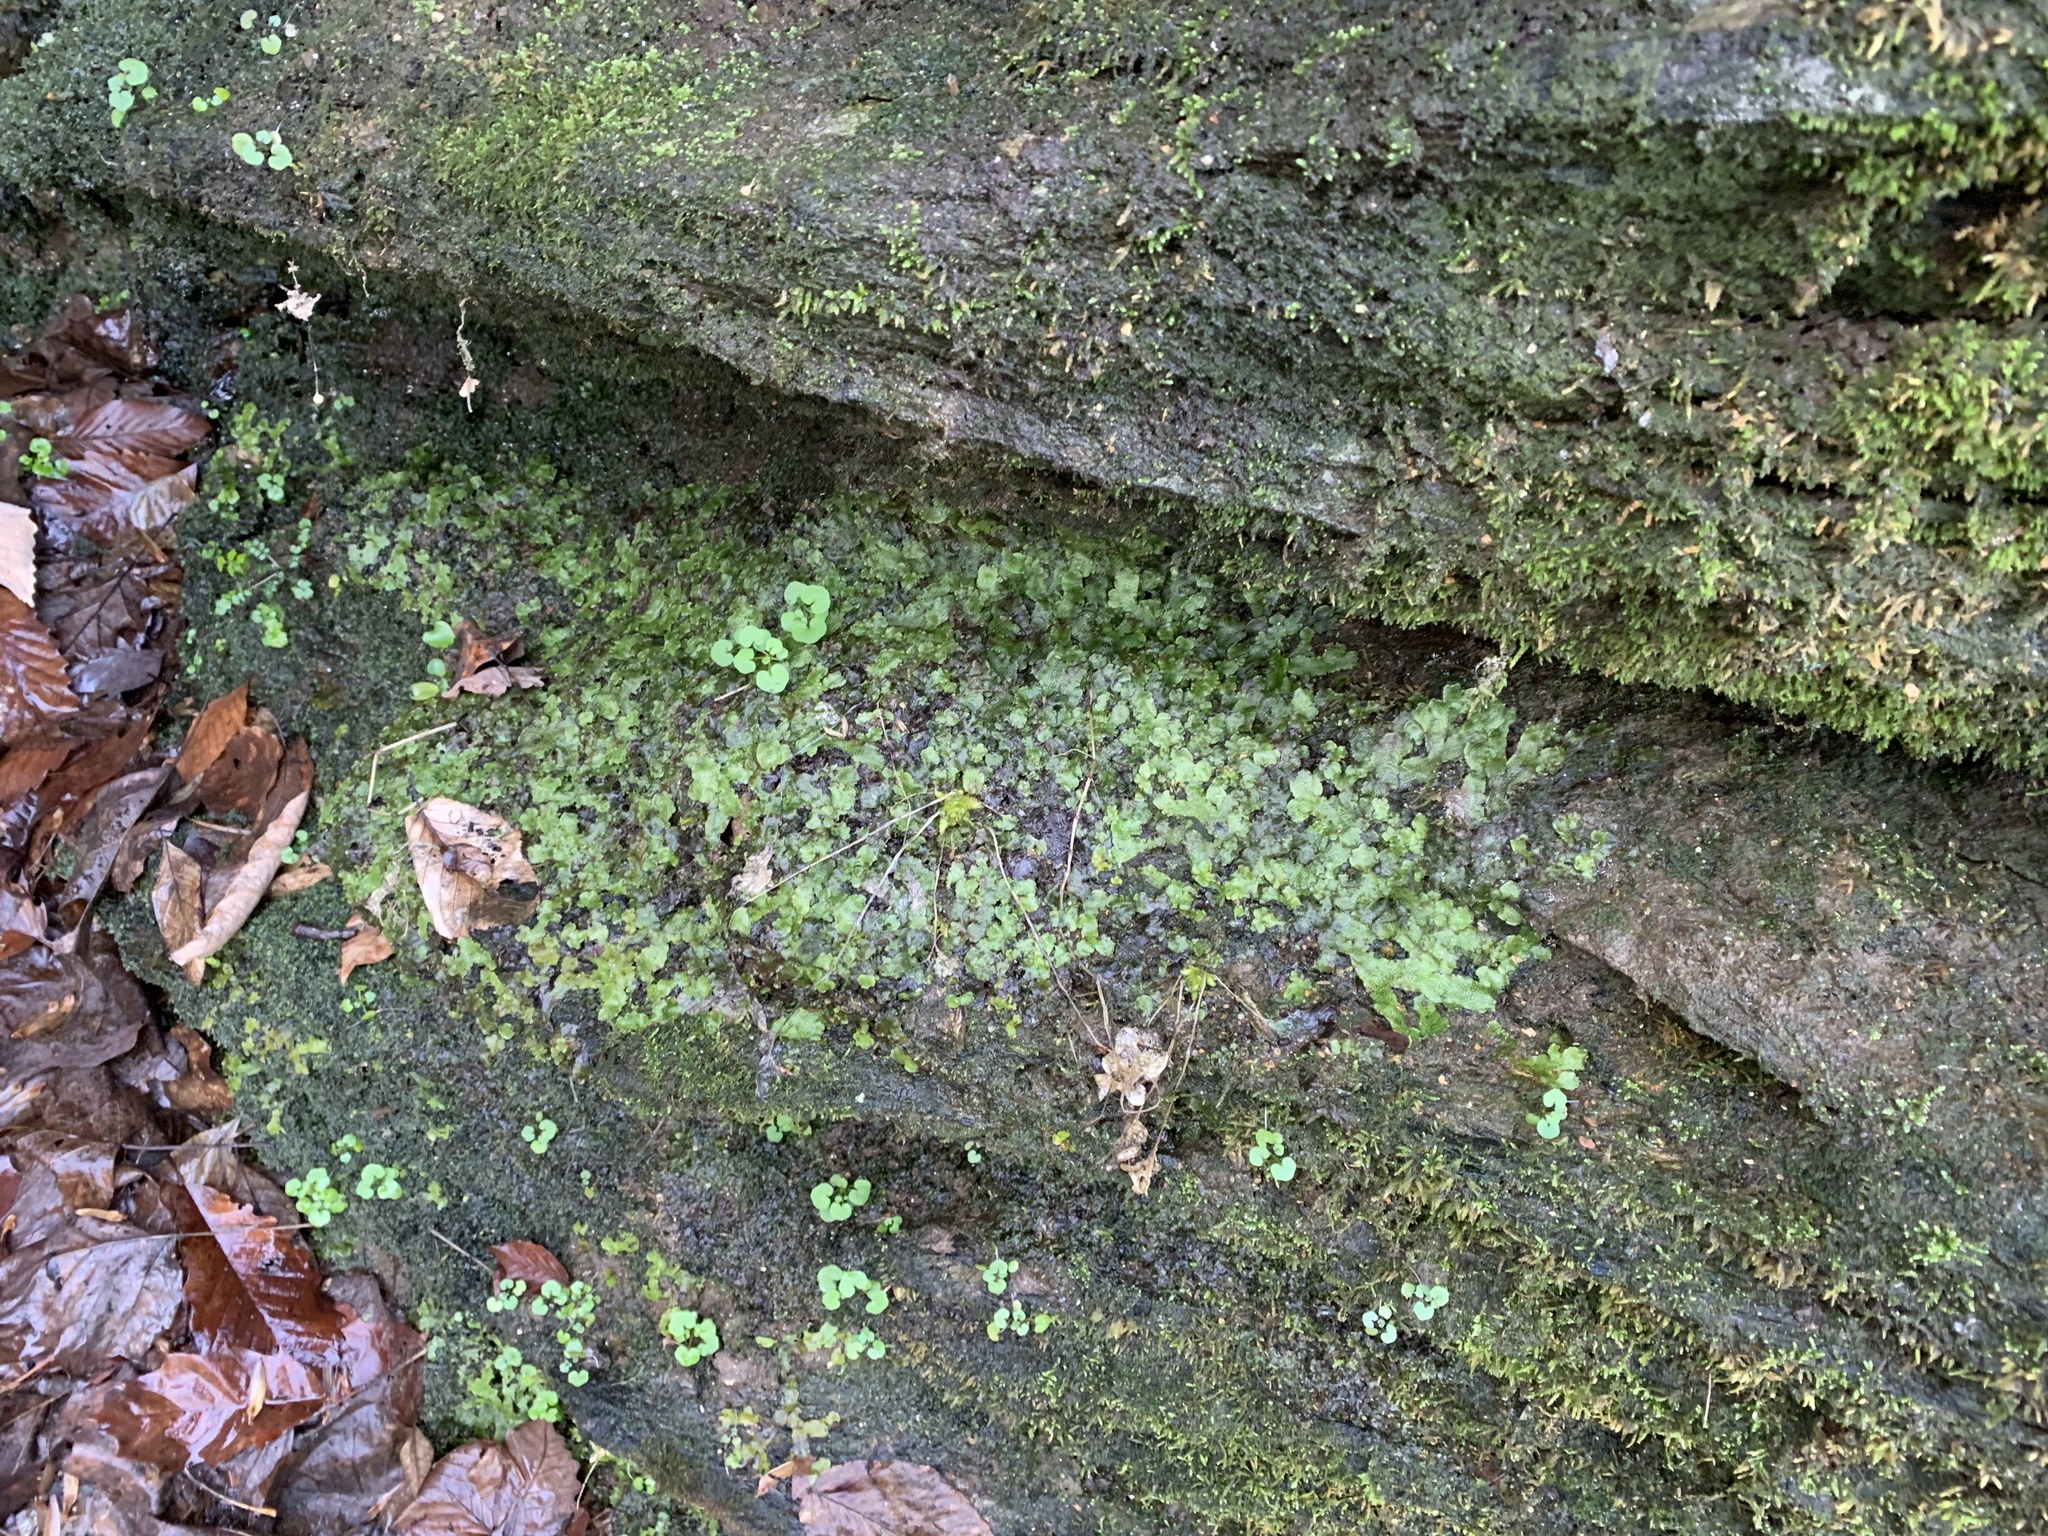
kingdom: Plantae
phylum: Marchantiophyta
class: Marchantiopsida
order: Marchantiales
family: Conocephalaceae
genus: Conocephalum
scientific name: Conocephalum salebrosum
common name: Cat-tongue liverwort
